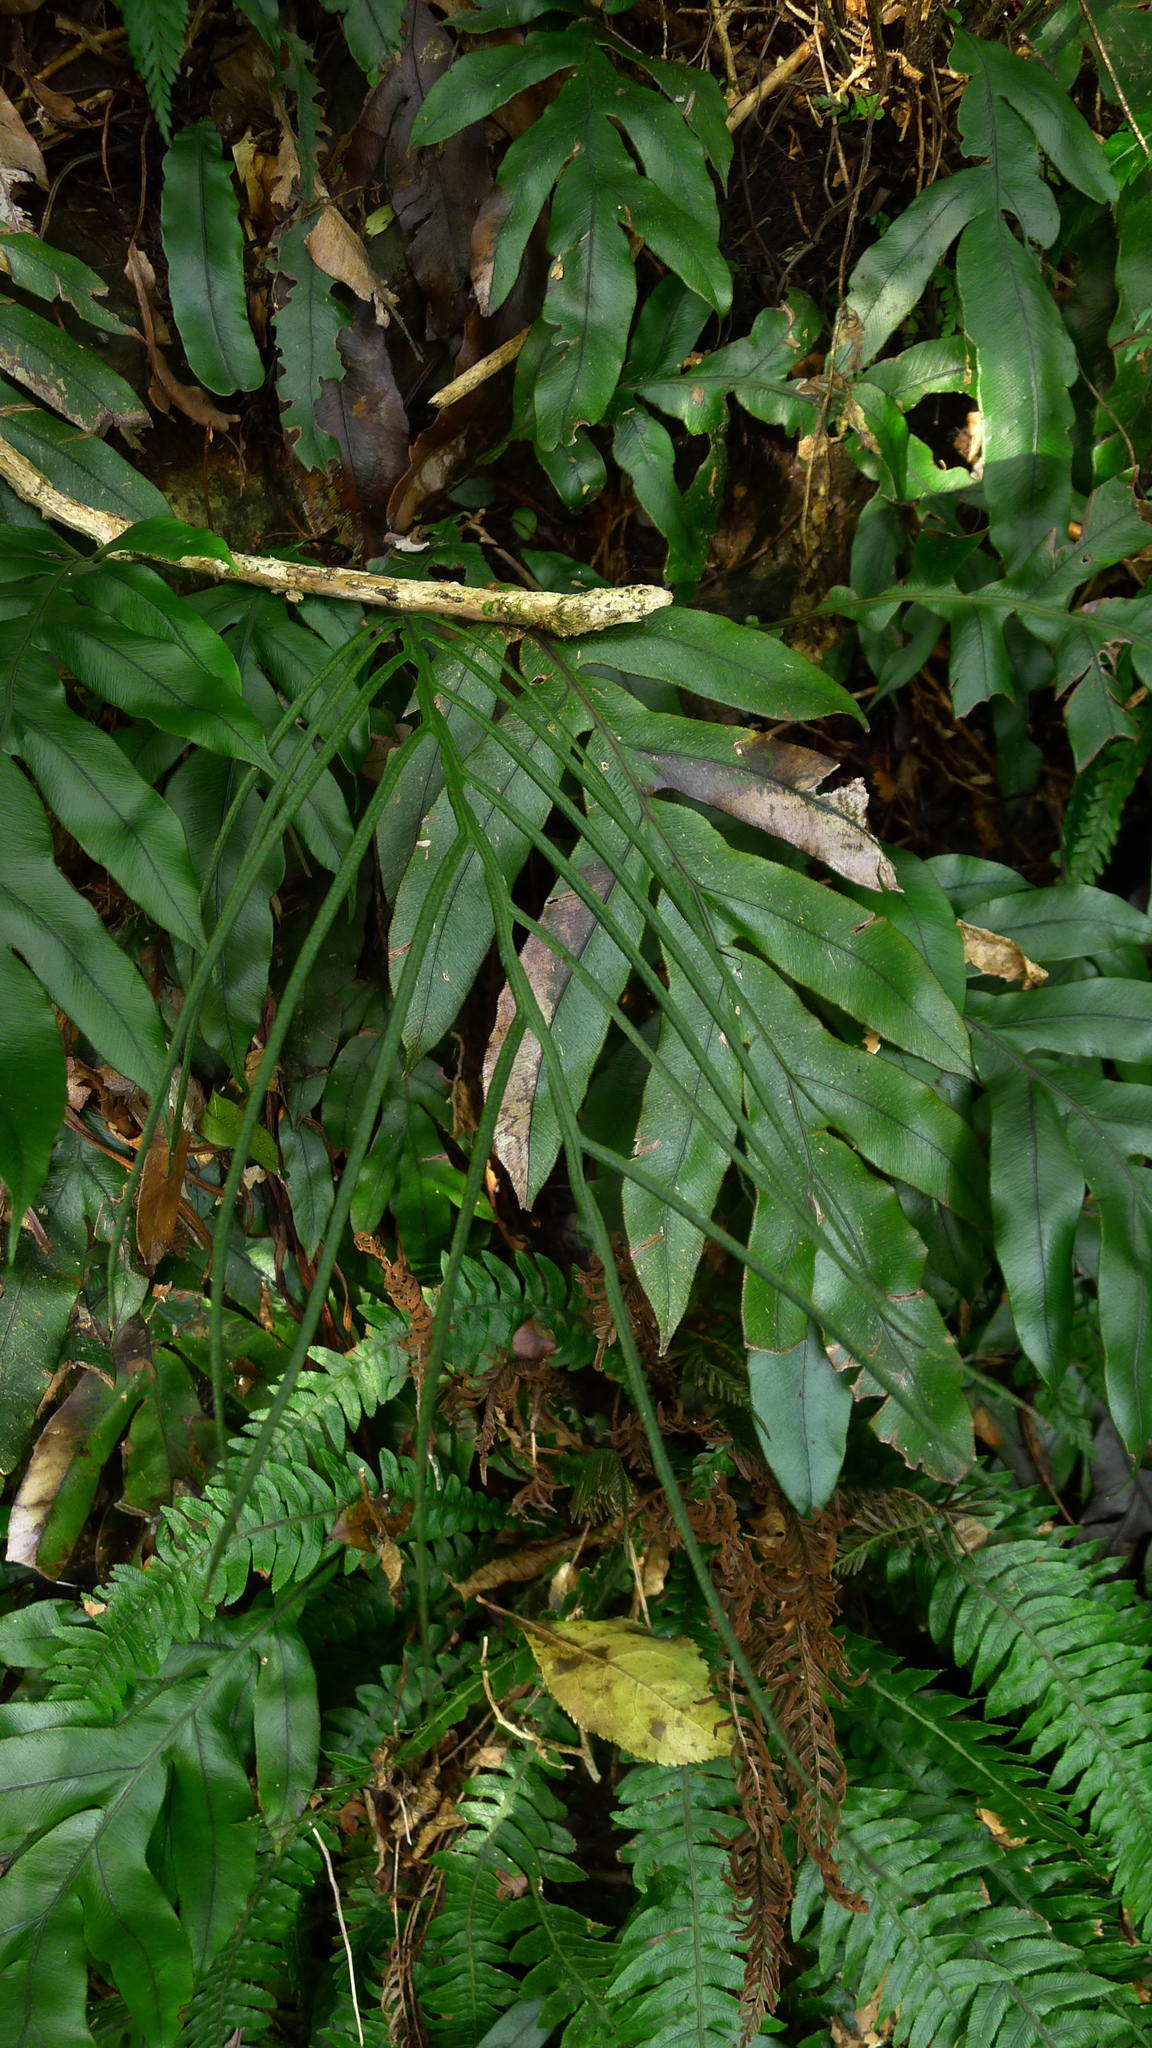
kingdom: Plantae
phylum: Tracheophyta
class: Polypodiopsida
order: Polypodiales
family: Blechnaceae
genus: Austroblechnum
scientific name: Austroblechnum colensoi
